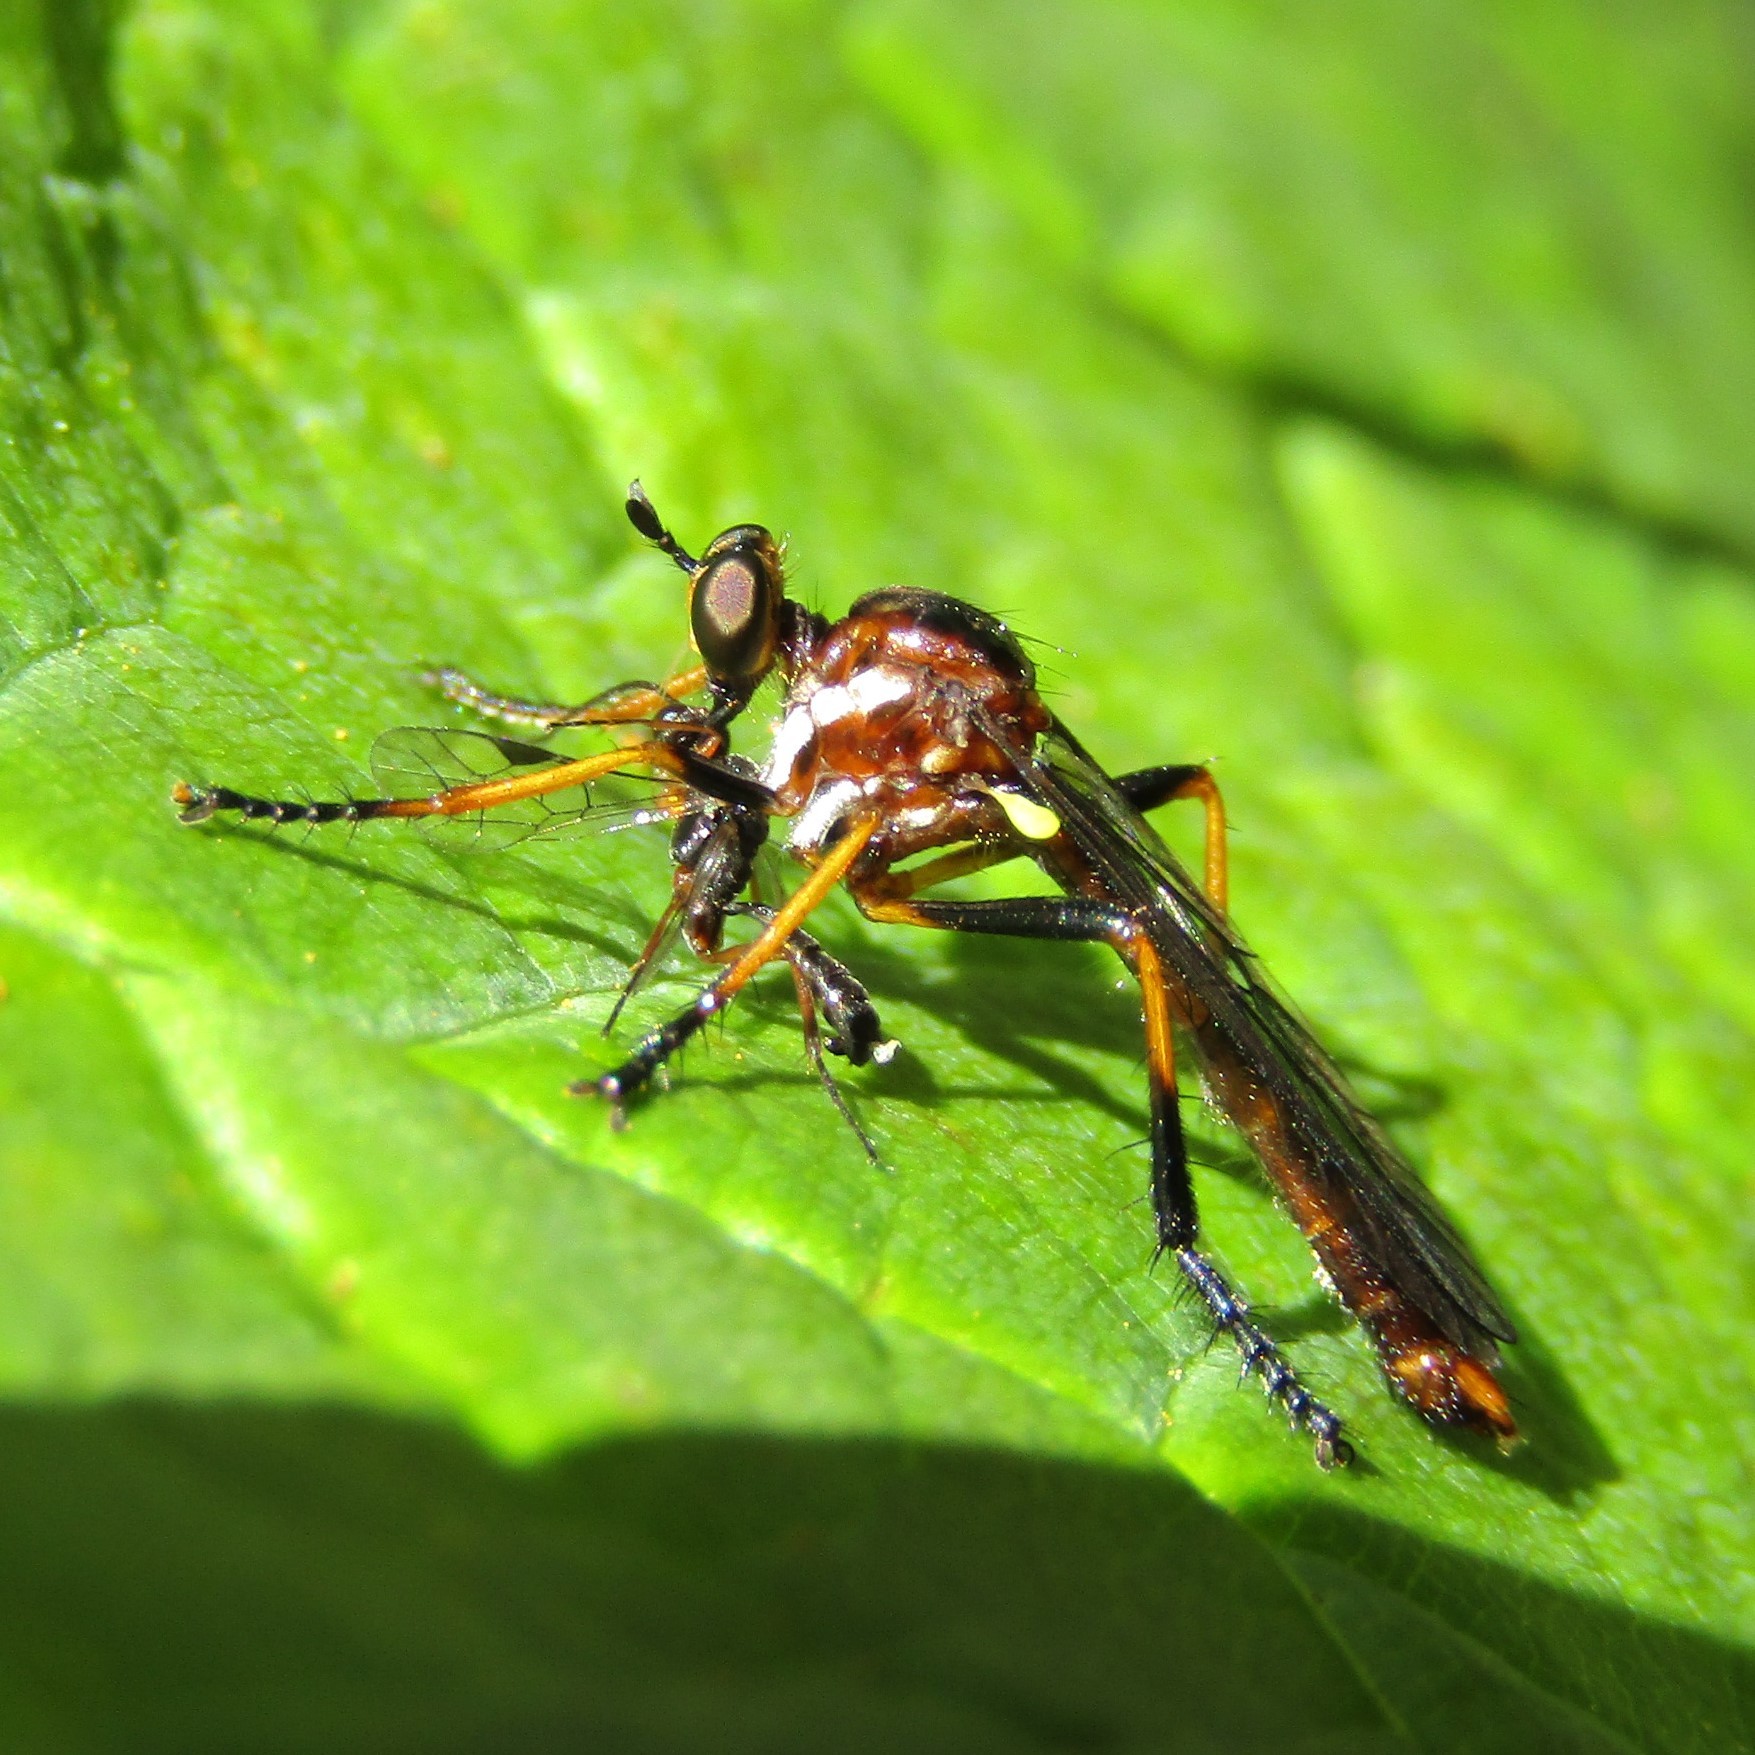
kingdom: Animalia
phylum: Arthropoda
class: Insecta
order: Diptera
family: Asilidae
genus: Saropogon
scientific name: Saropogon fascipes
